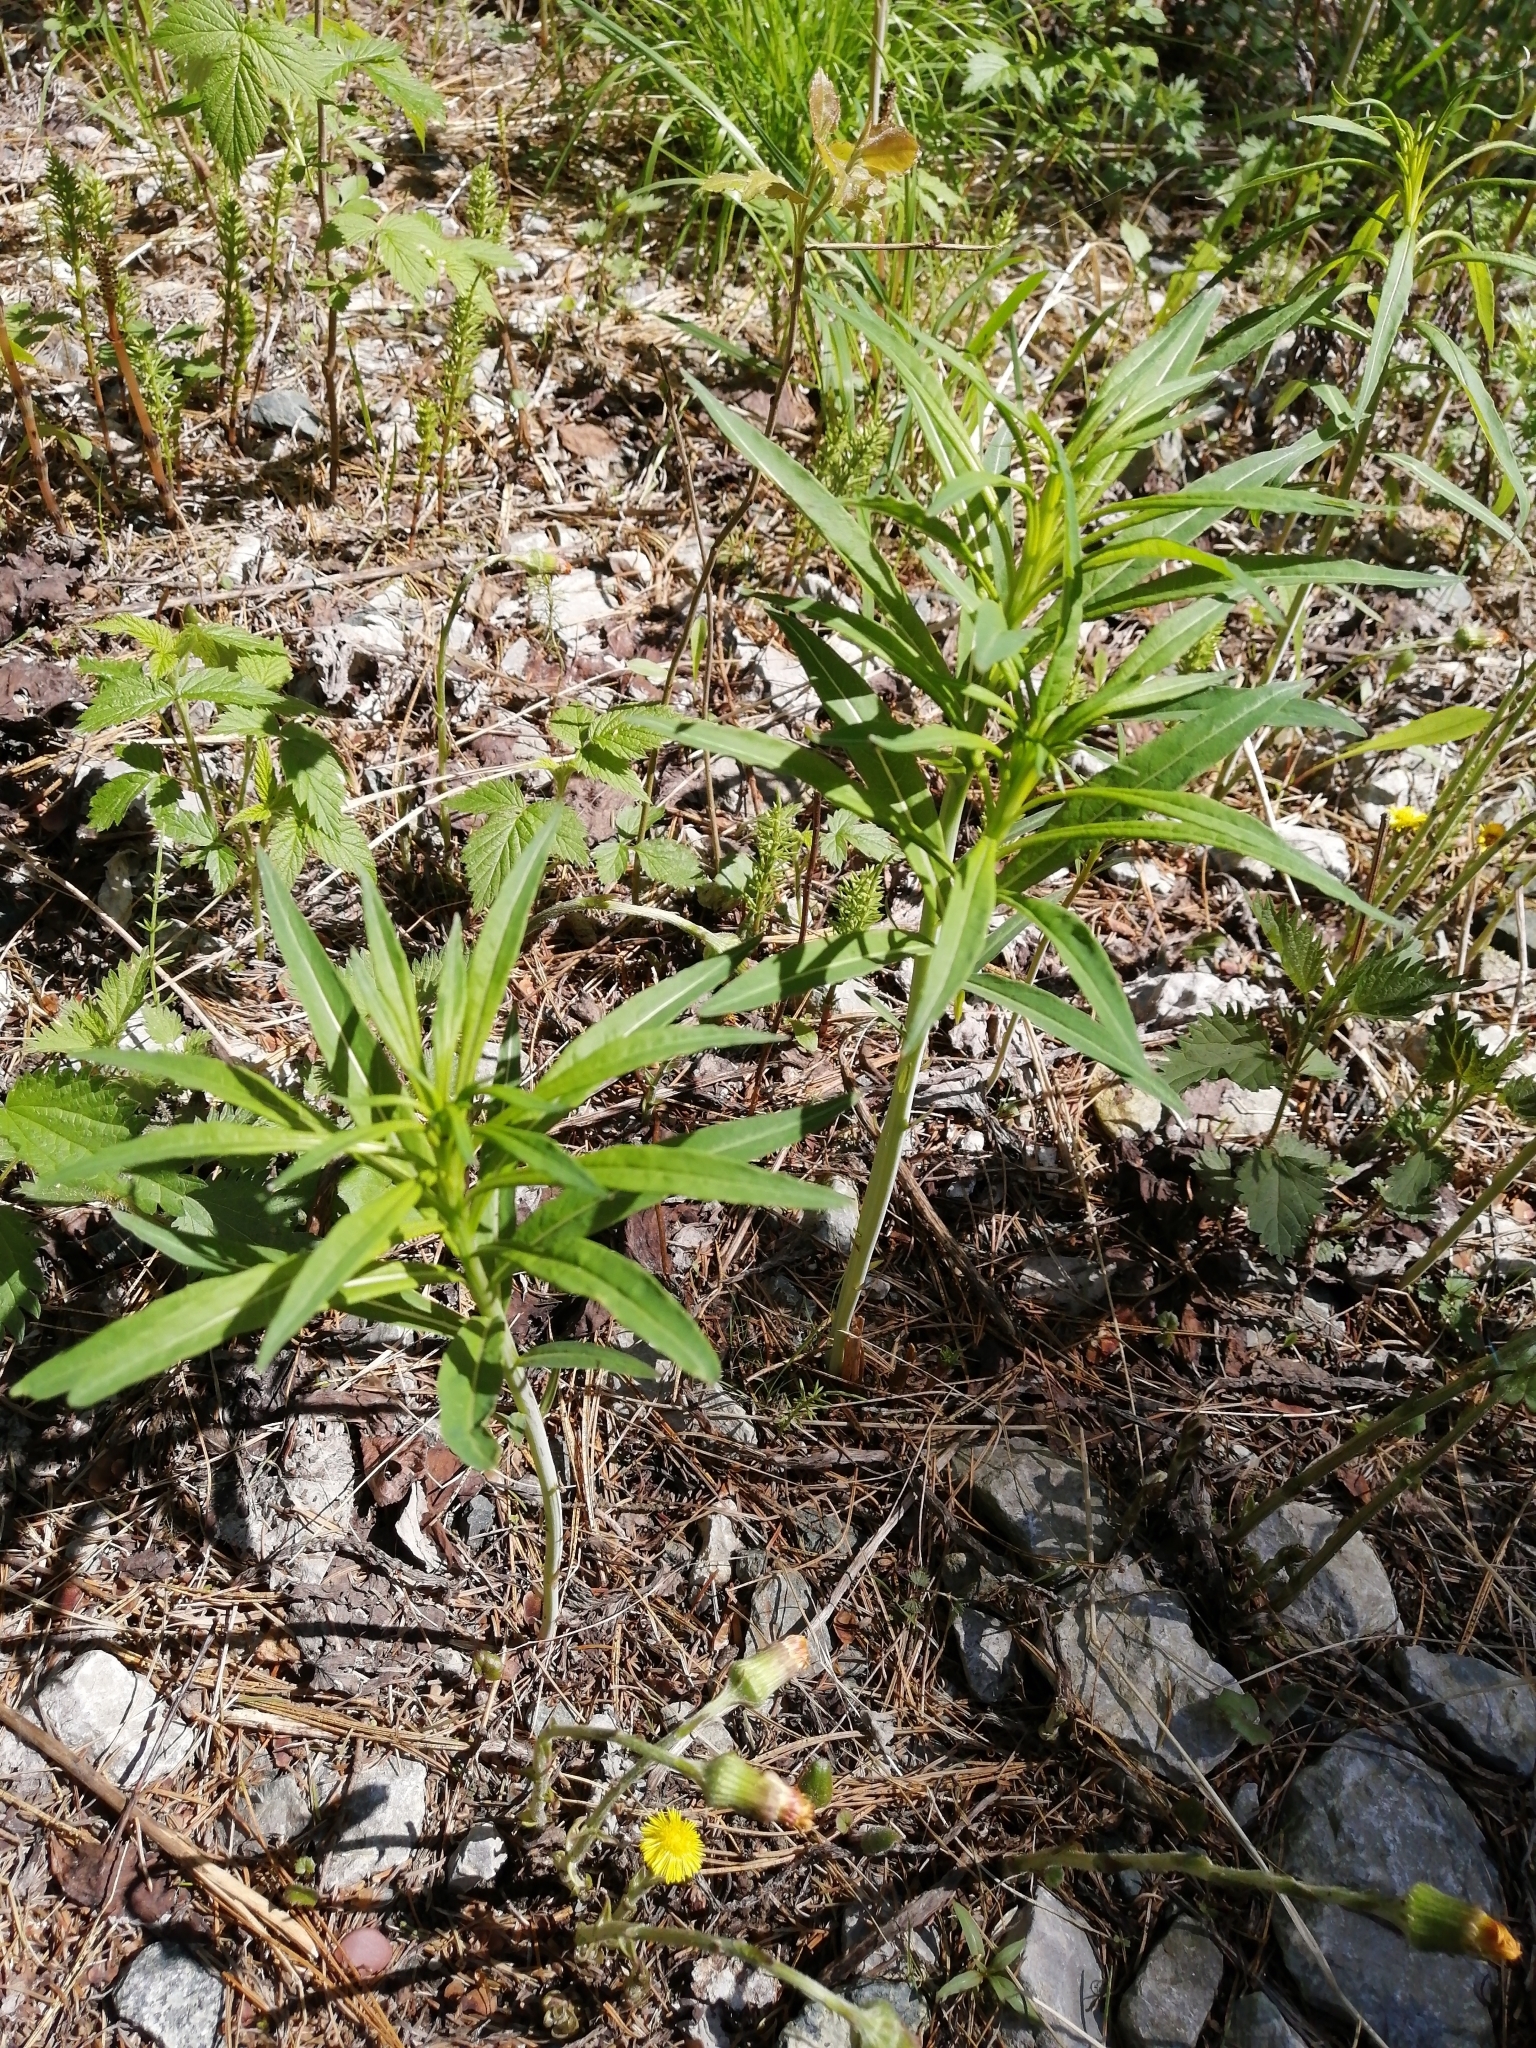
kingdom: Plantae
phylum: Tracheophyta
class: Magnoliopsida
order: Myrtales
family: Onagraceae
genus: Chamaenerion
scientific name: Chamaenerion angustifolium
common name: Fireweed
